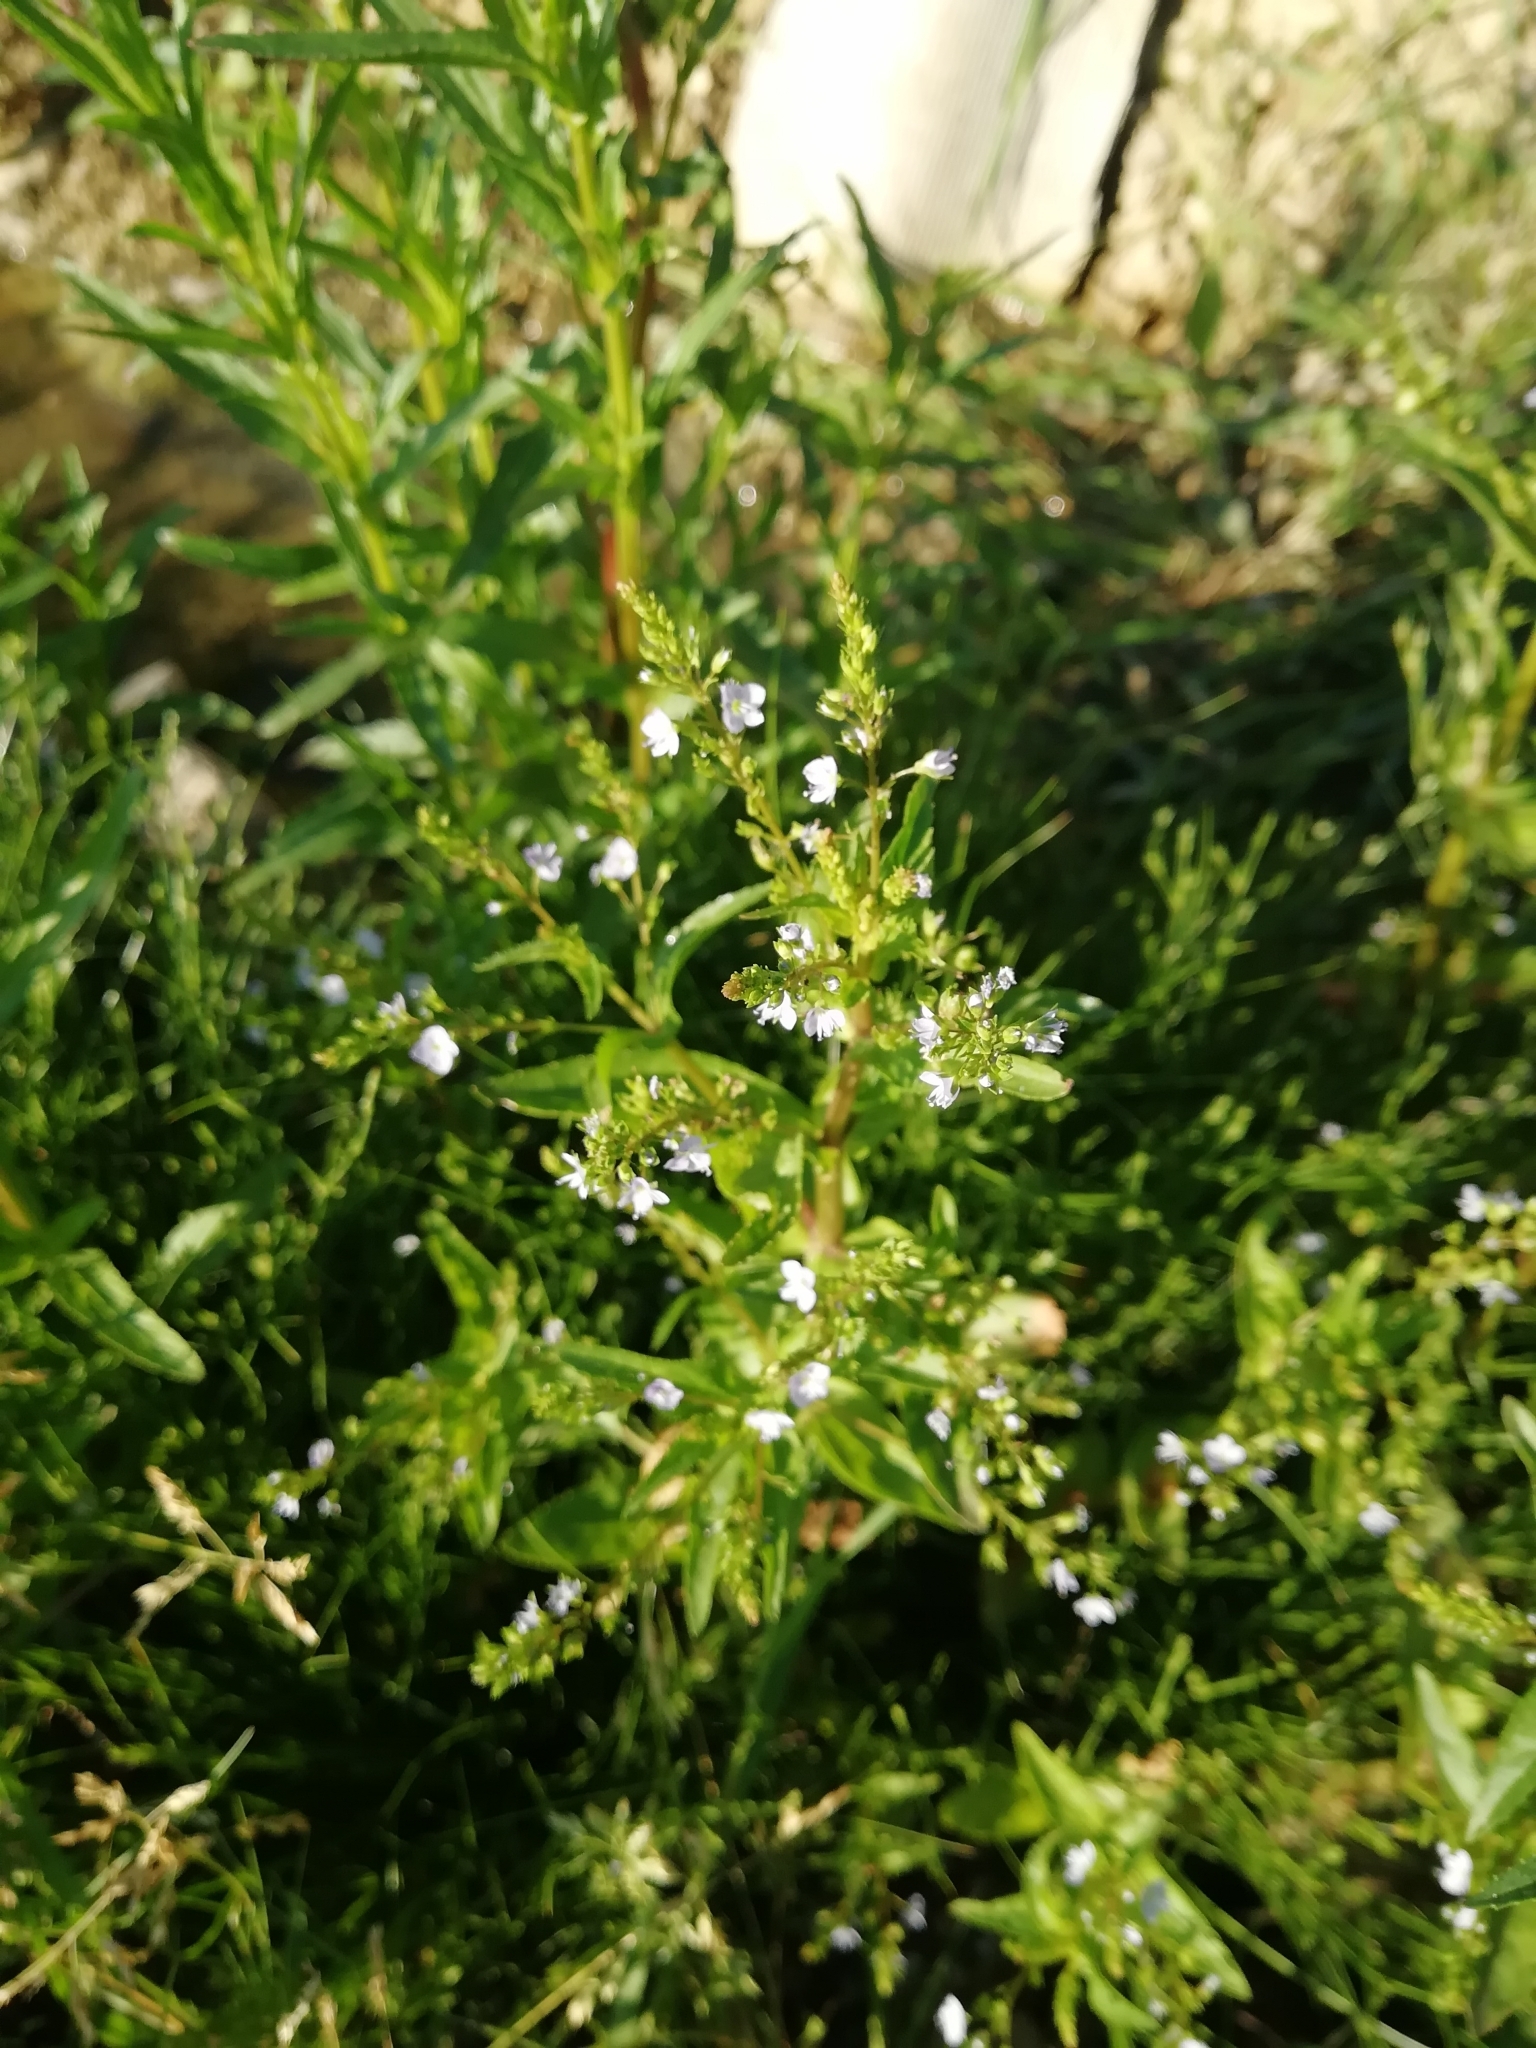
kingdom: Plantae
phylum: Tracheophyta
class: Magnoliopsida
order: Lamiales
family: Plantaginaceae
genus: Veronica
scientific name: Veronica anagallis-aquatica
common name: Water speedwell
